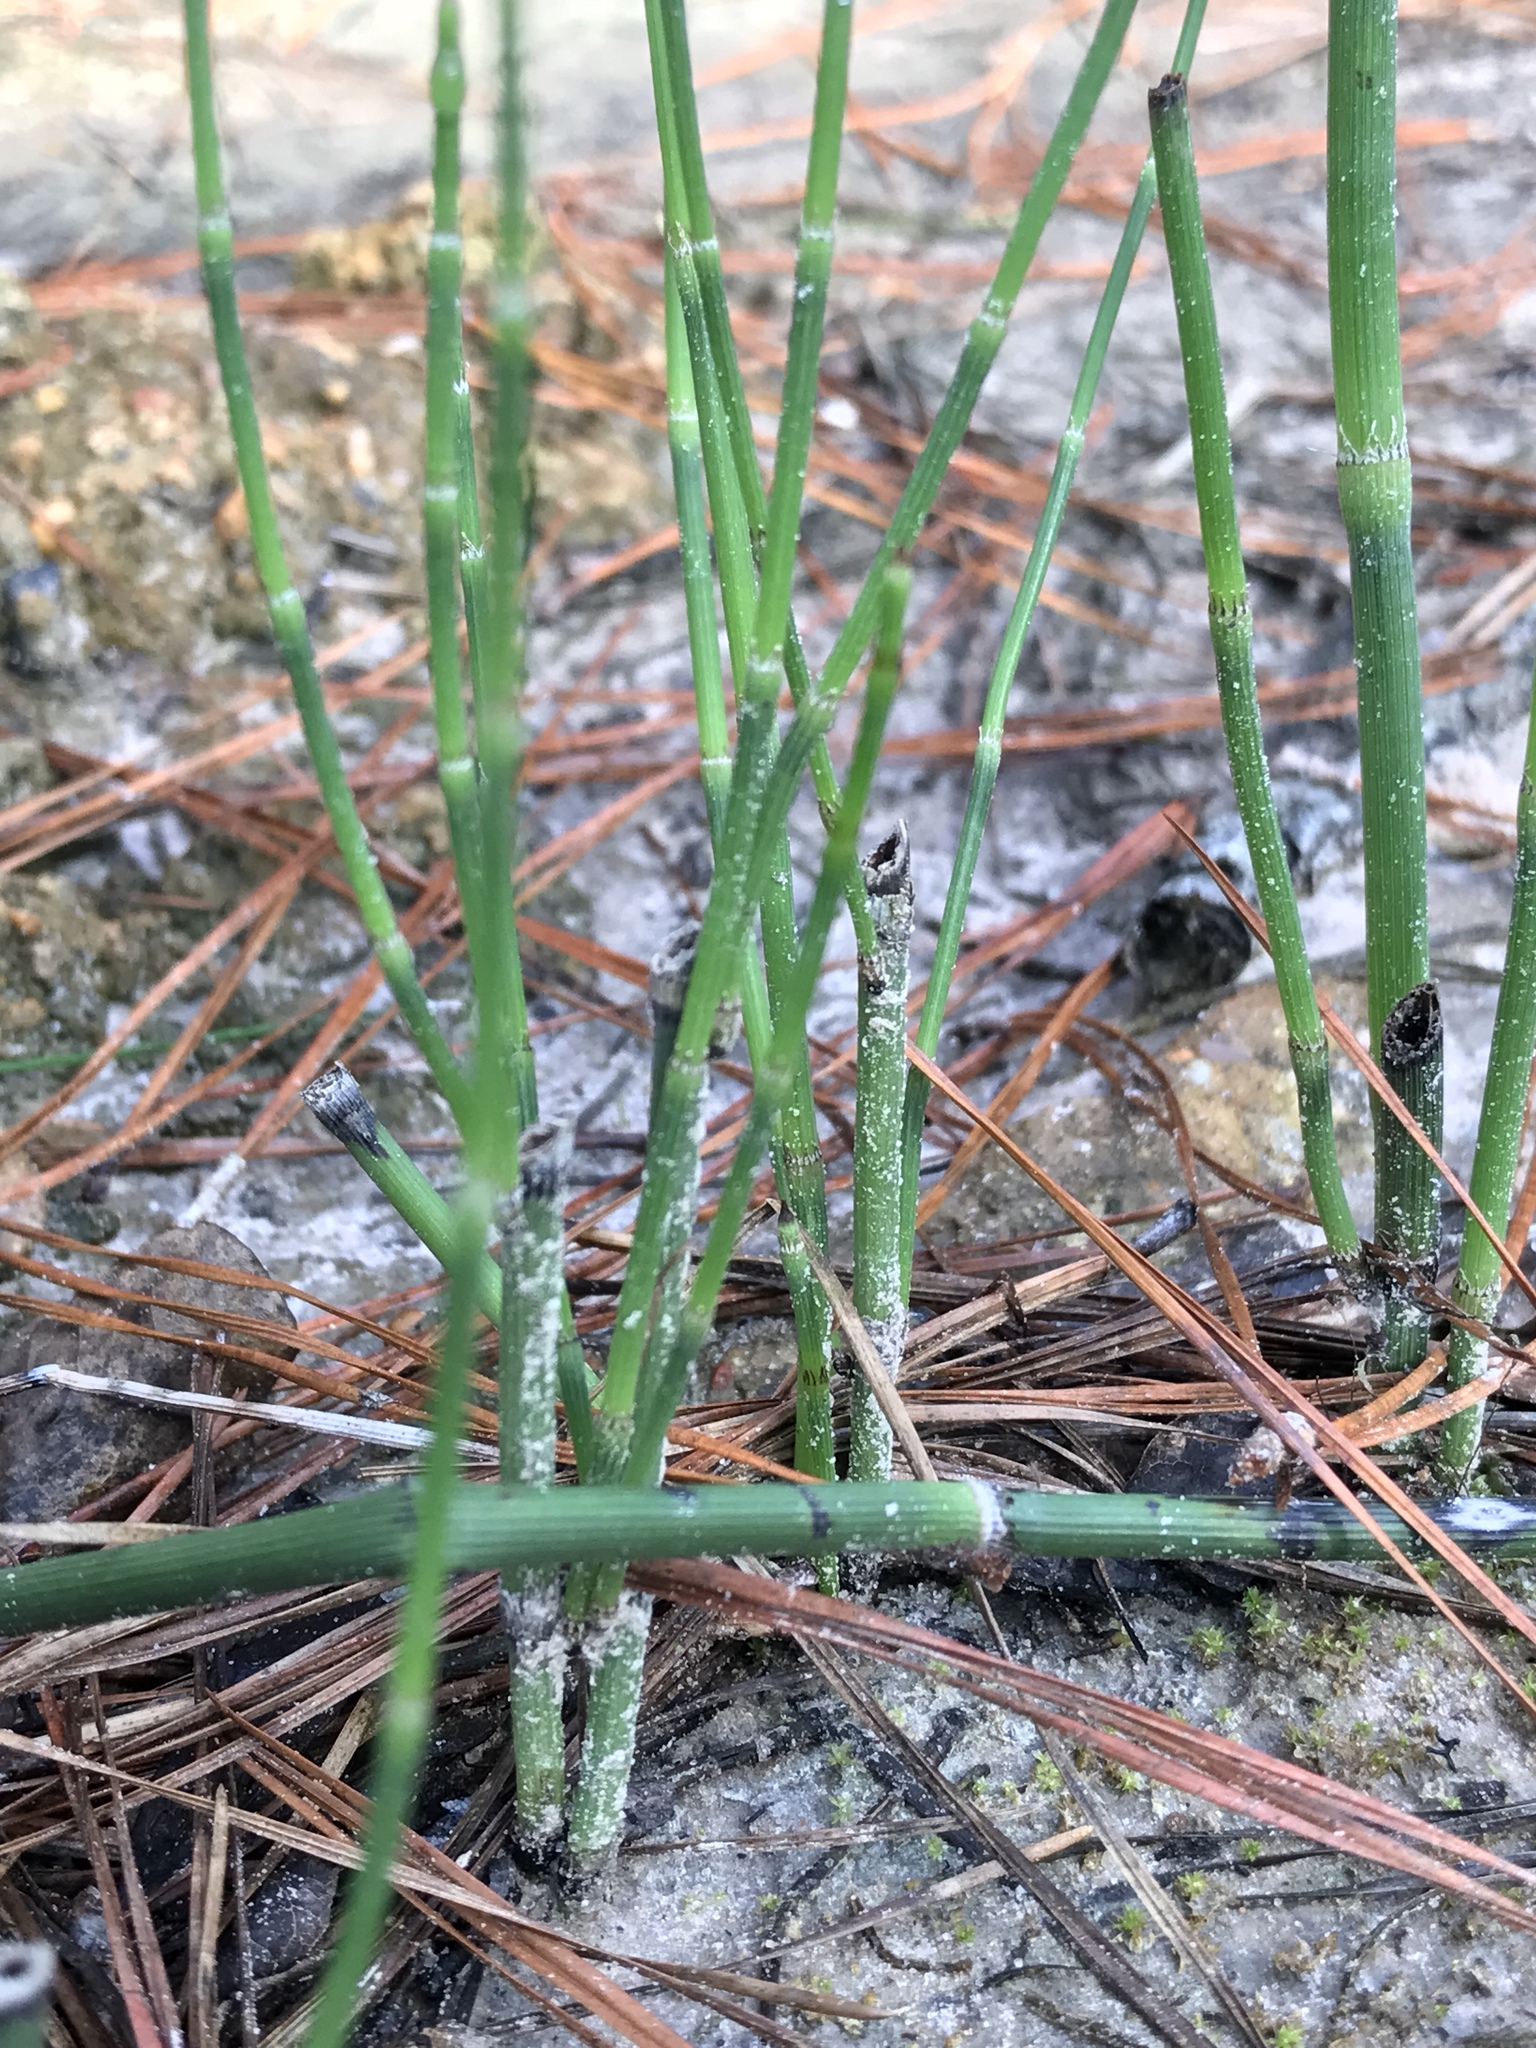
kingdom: Plantae
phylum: Tracheophyta
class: Polypodiopsida
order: Equisetales
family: Equisetaceae
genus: Equisetum
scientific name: Equisetum praealtum
